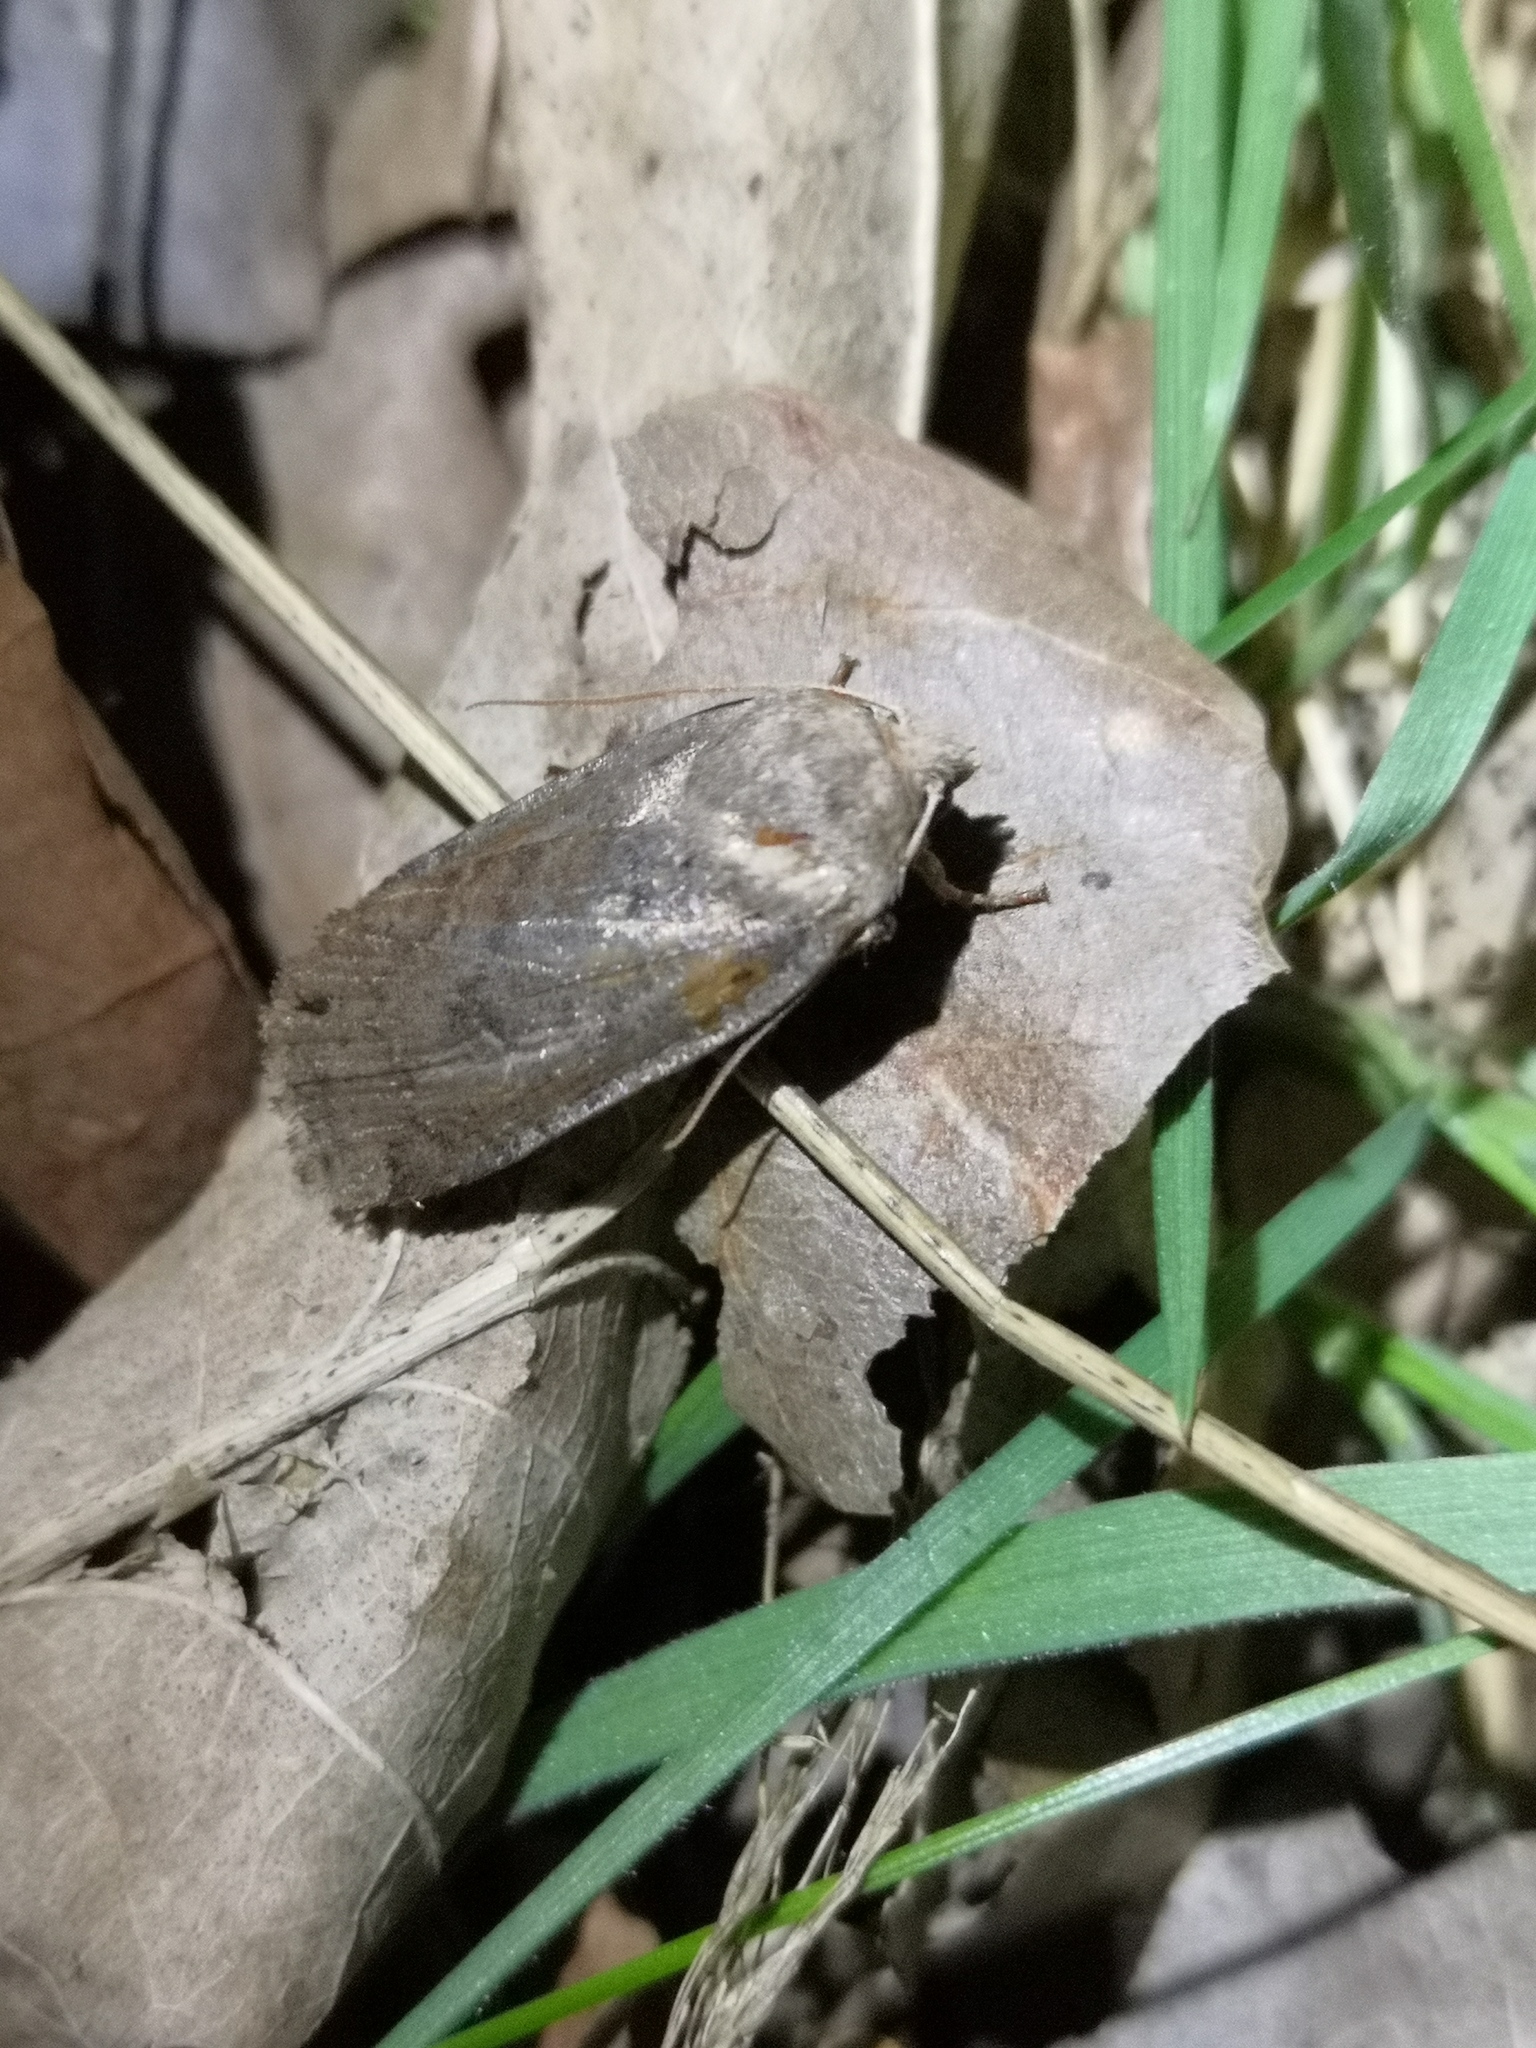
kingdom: Animalia
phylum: Arthropoda
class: Insecta
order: Lepidoptera
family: Noctuidae
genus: Conistra
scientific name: Conistra vaccinii
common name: Chestnut
